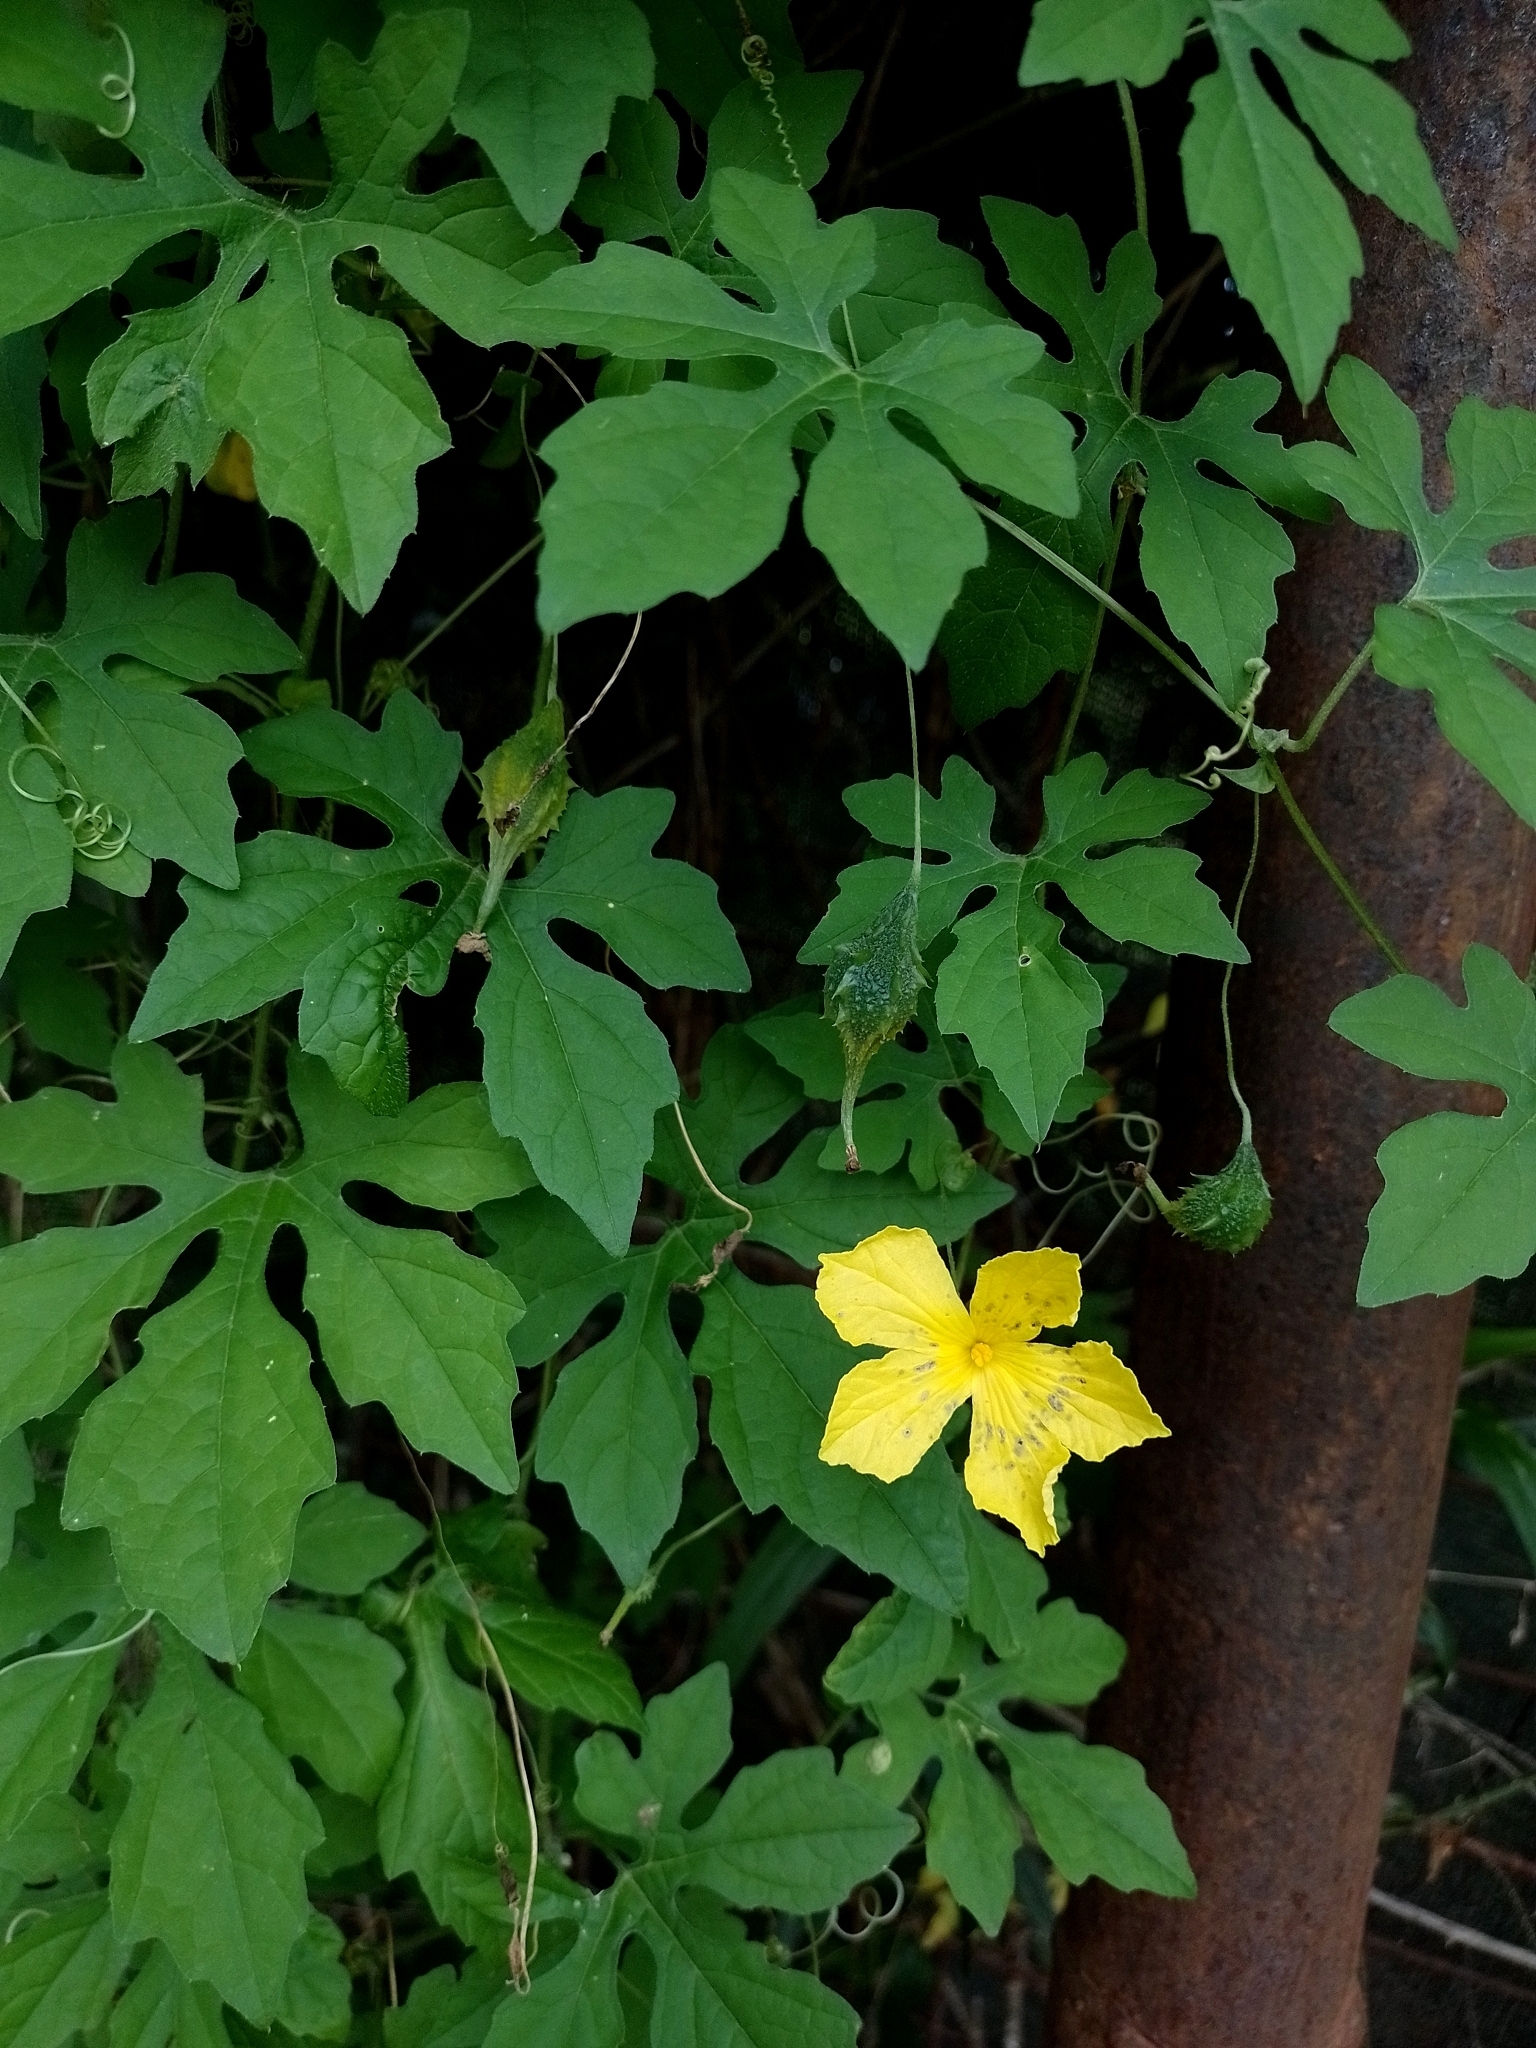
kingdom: Plantae
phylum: Tracheophyta
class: Magnoliopsida
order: Cucurbitales
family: Cucurbitaceae
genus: Momordica
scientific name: Momordica charantia
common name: Balsampear
